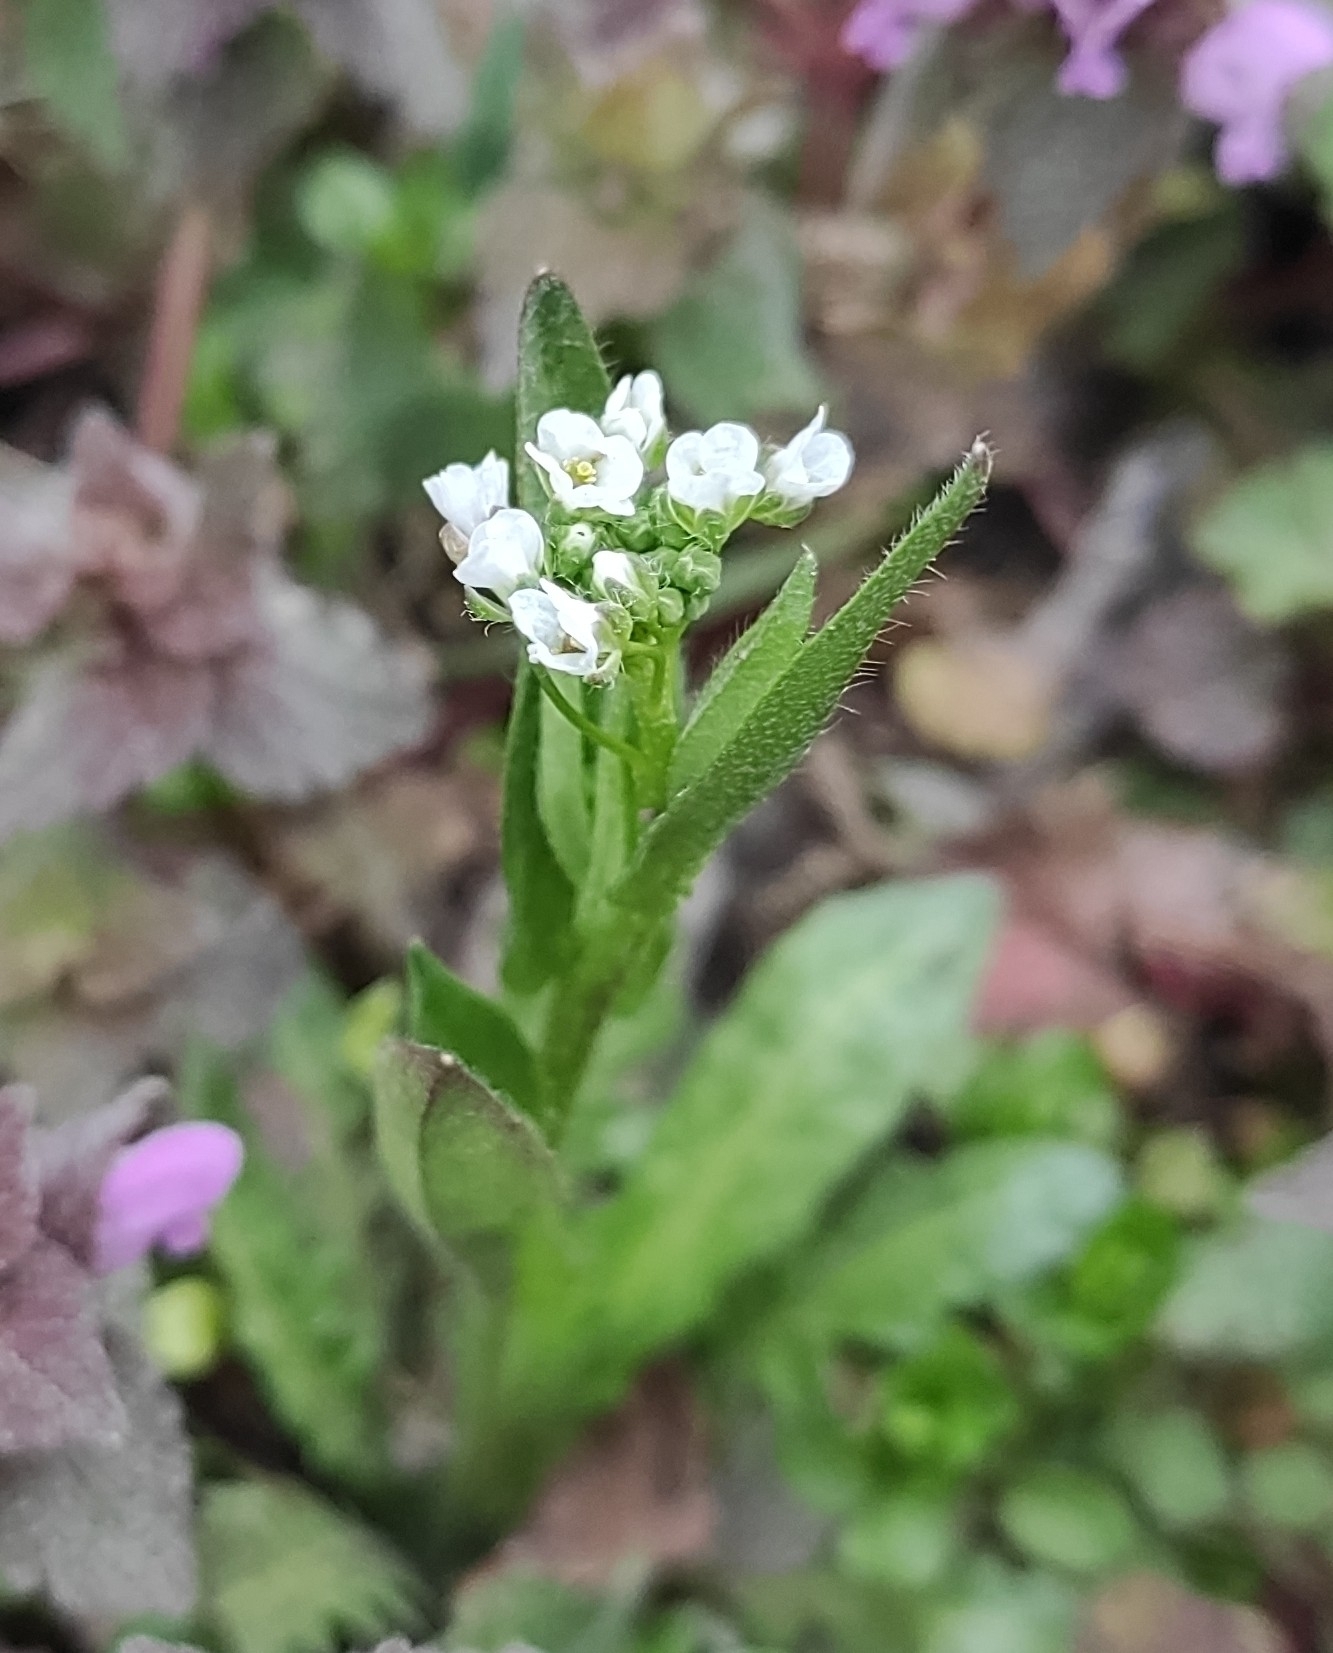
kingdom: Plantae
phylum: Tracheophyta
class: Magnoliopsida
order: Brassicales
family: Brassicaceae
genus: Capsella
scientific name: Capsella bursa-pastoris
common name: Shepherd's purse
